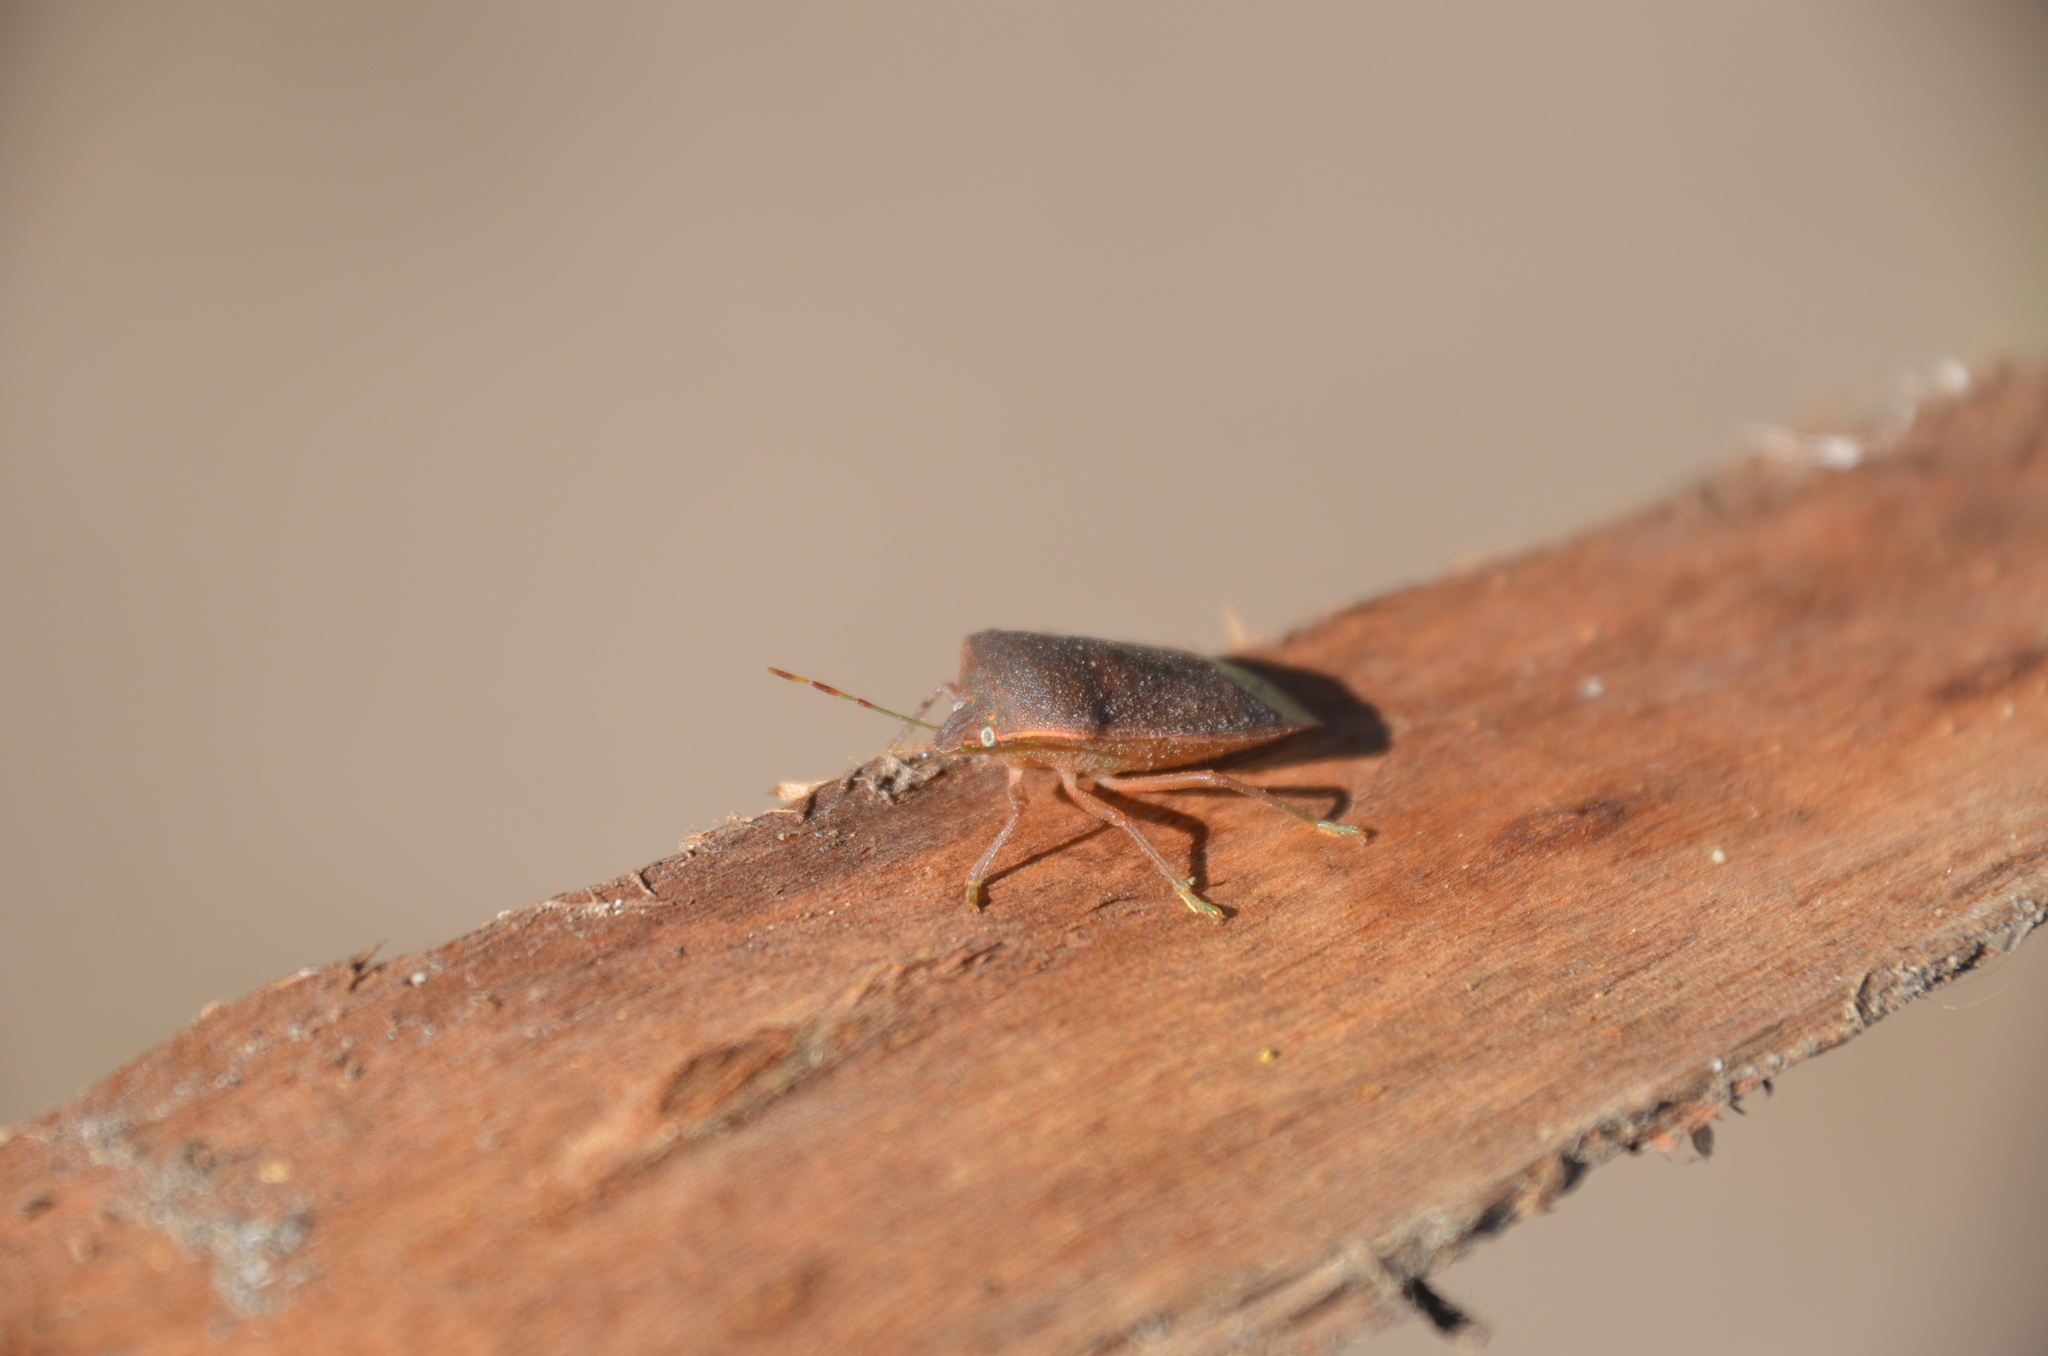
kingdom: Animalia
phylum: Arthropoda
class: Insecta
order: Hemiptera
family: Pentatomidae
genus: Nezara
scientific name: Nezara viridula
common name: Southern green stink bug
